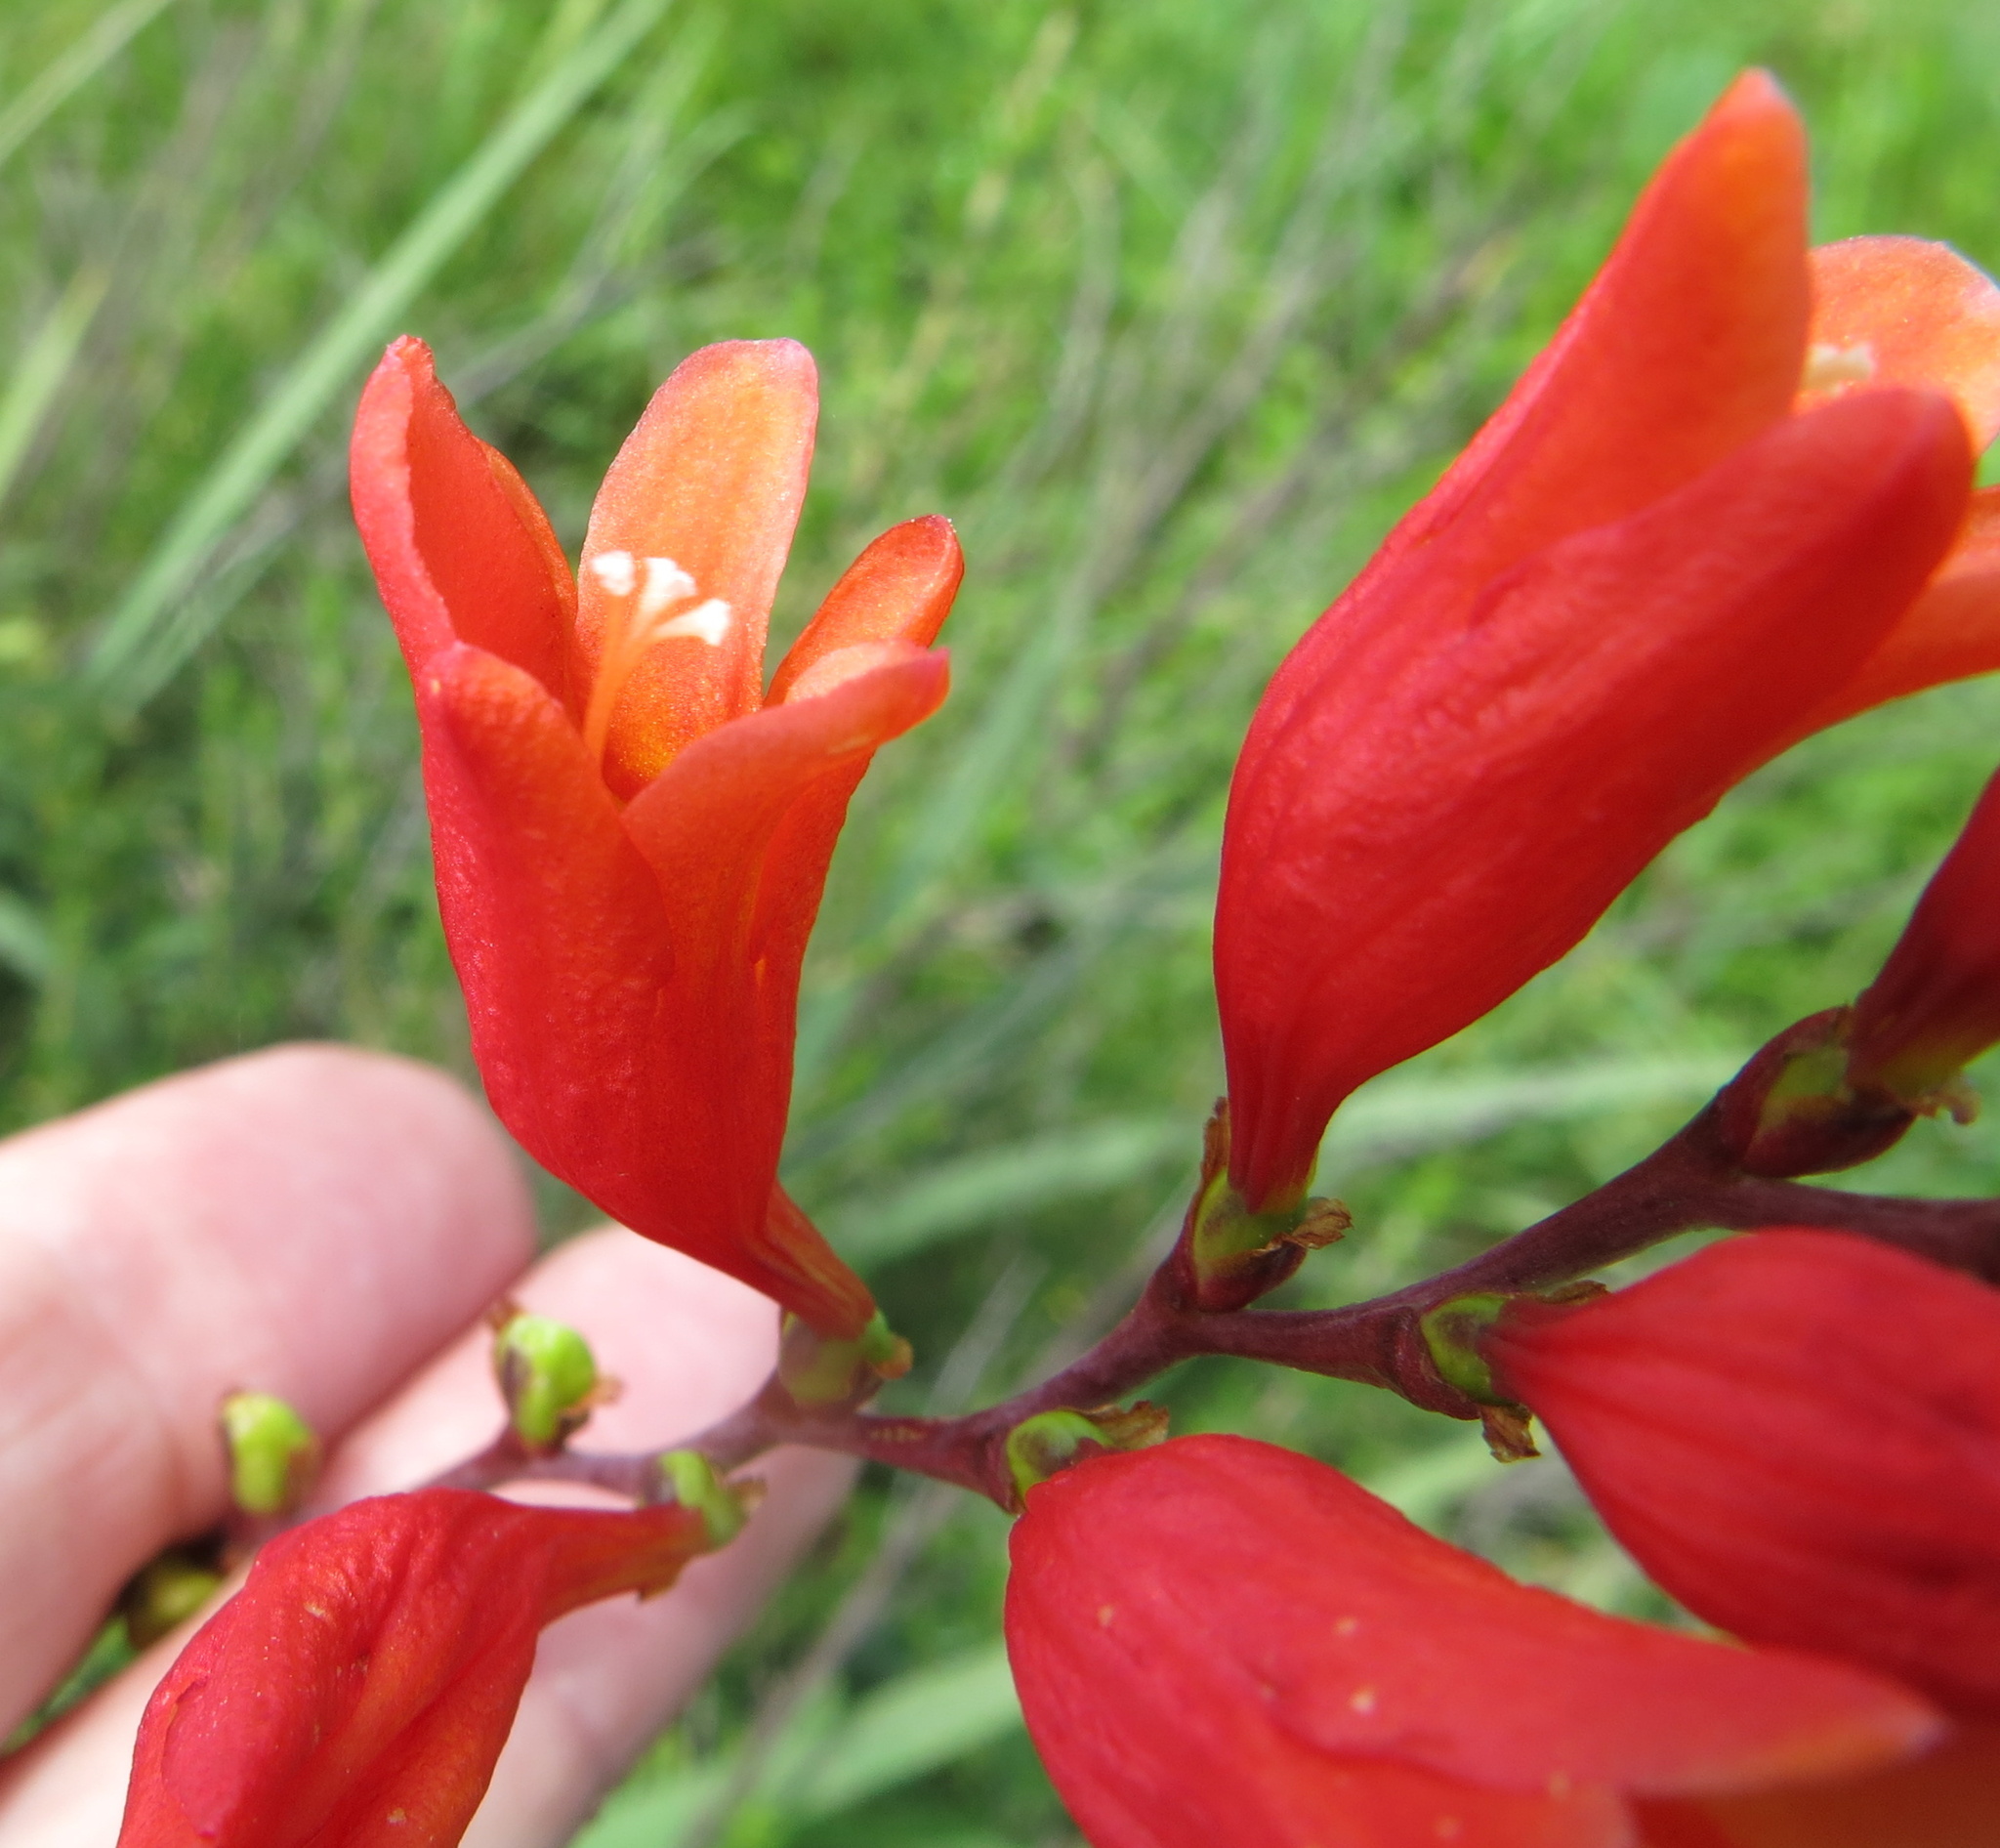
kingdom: Plantae
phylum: Tracheophyta
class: Liliopsida
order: Asparagales
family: Iridaceae
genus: Crocosmia
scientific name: Crocosmia pottsii
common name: Pott's montbretia
